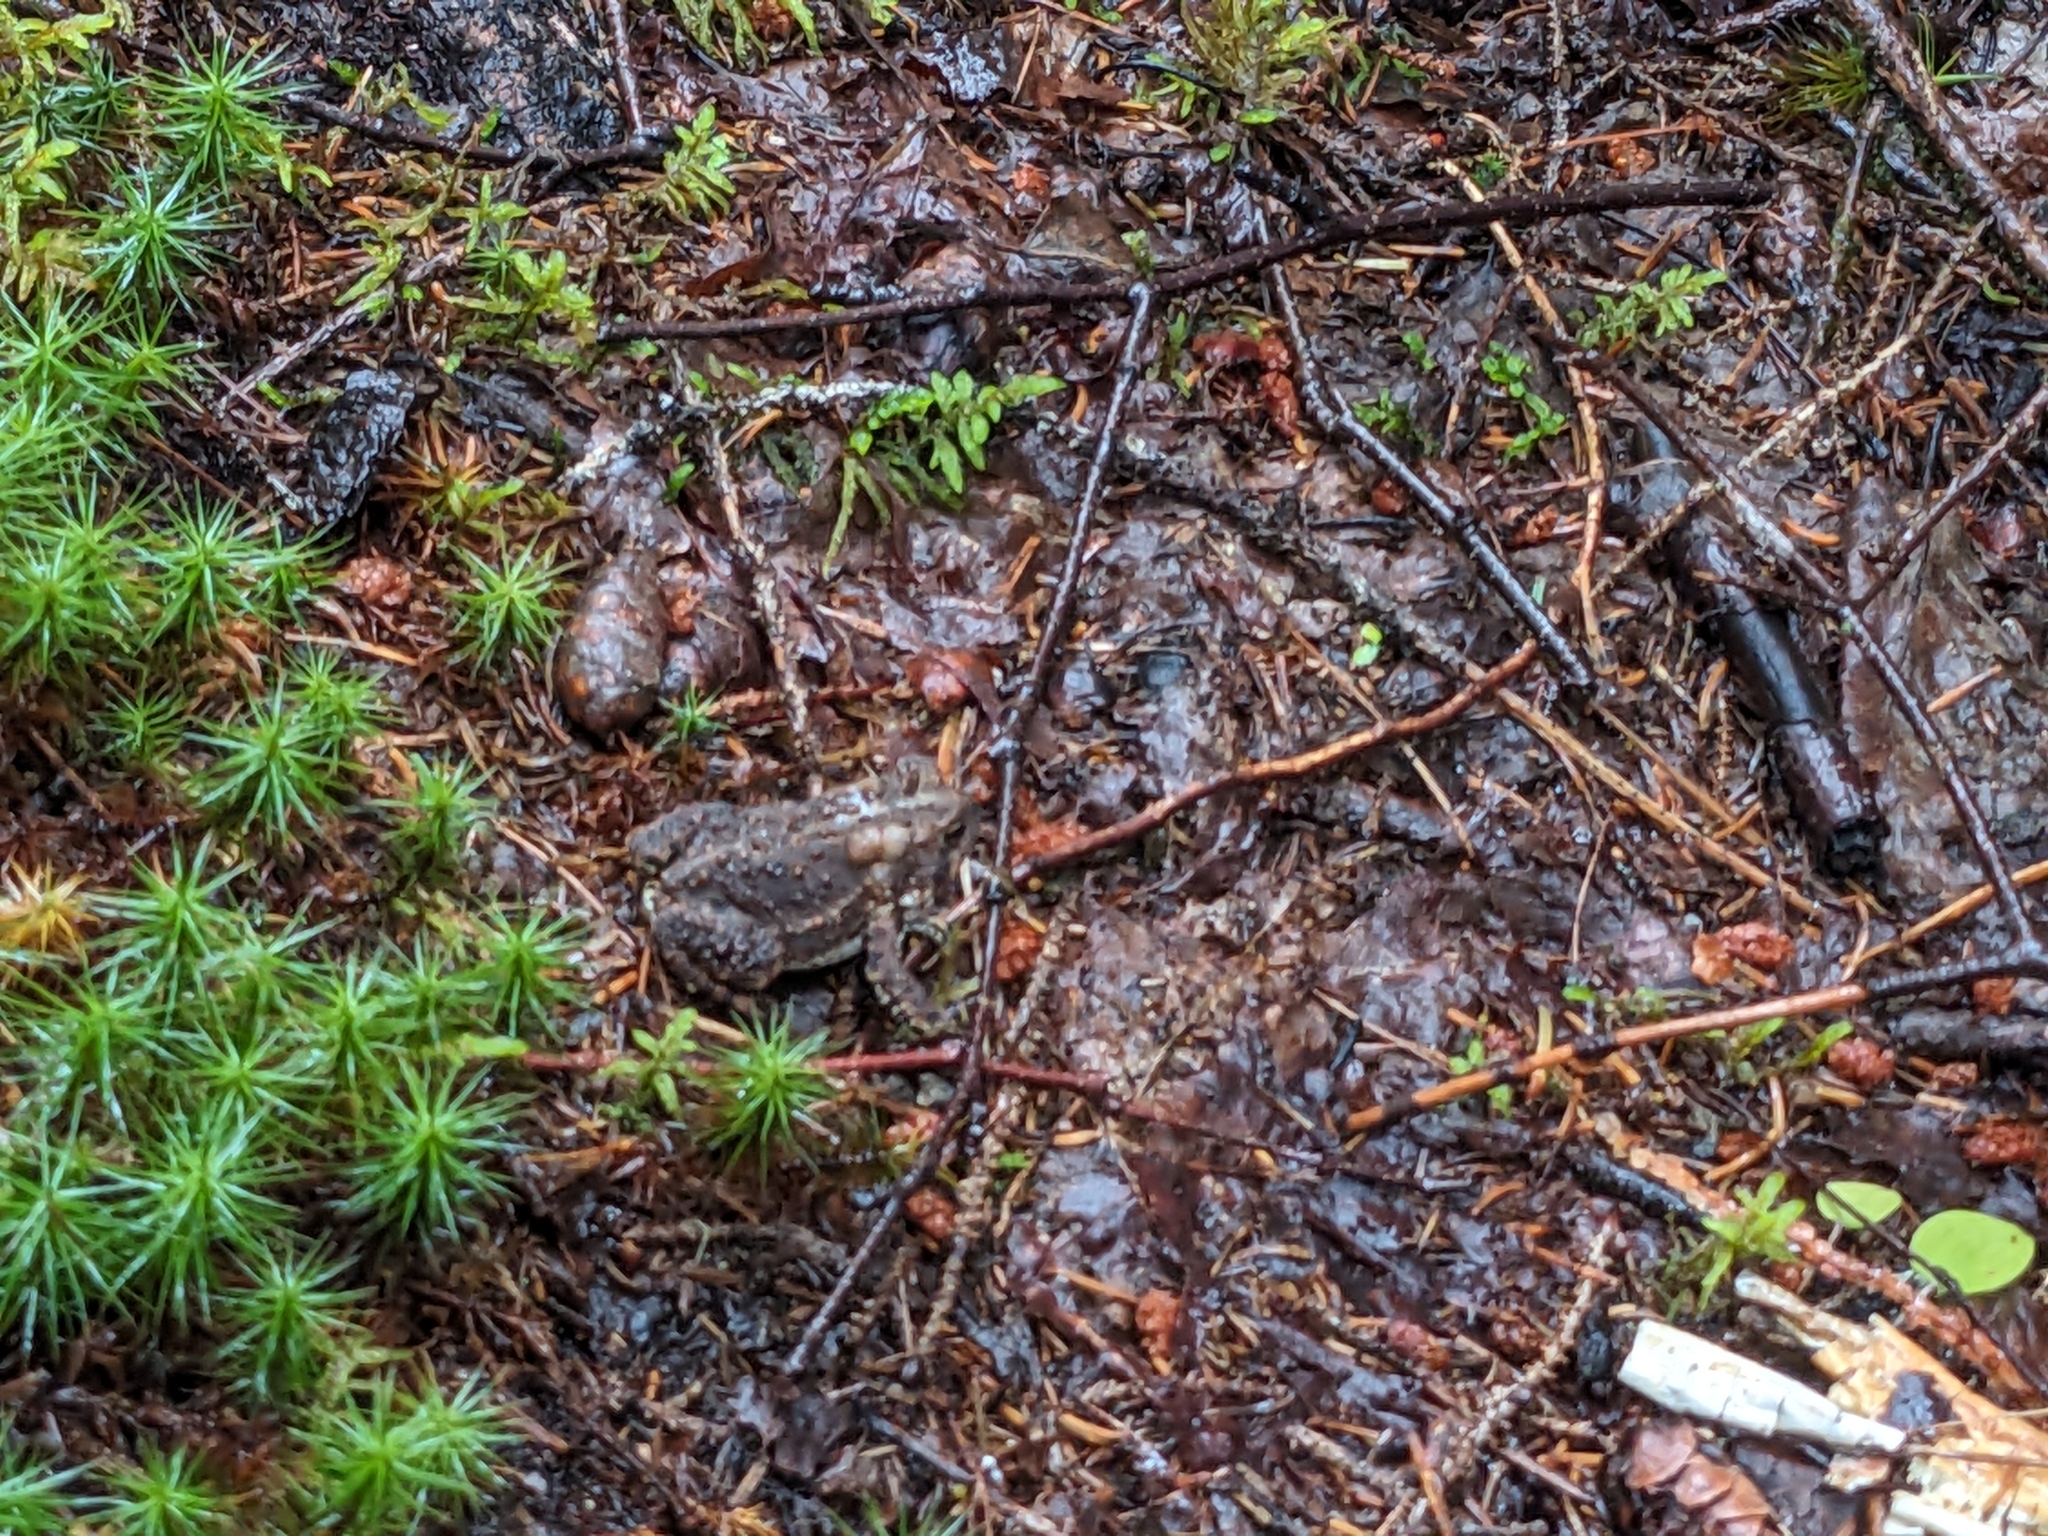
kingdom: Animalia
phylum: Chordata
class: Amphibia
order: Anura
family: Bufonidae
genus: Anaxyrus
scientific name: Anaxyrus americanus
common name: American toad
